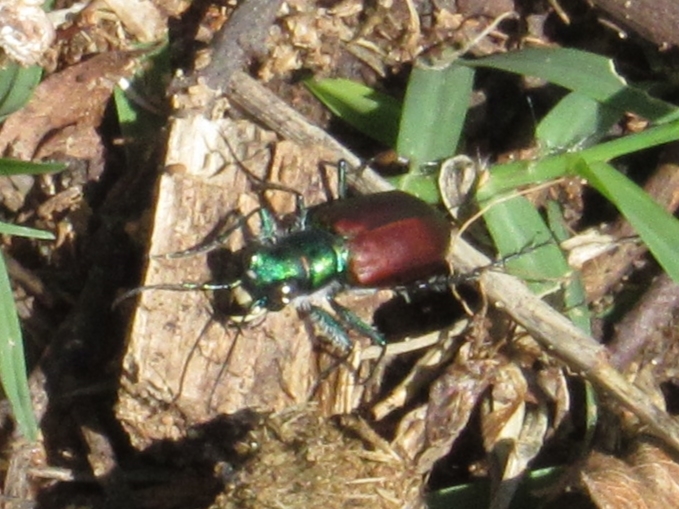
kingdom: Animalia
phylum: Arthropoda
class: Insecta
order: Coleoptera
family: Carabidae
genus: Cicindela
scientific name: Cicindela scutellaris
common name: Festive tiger beetle
